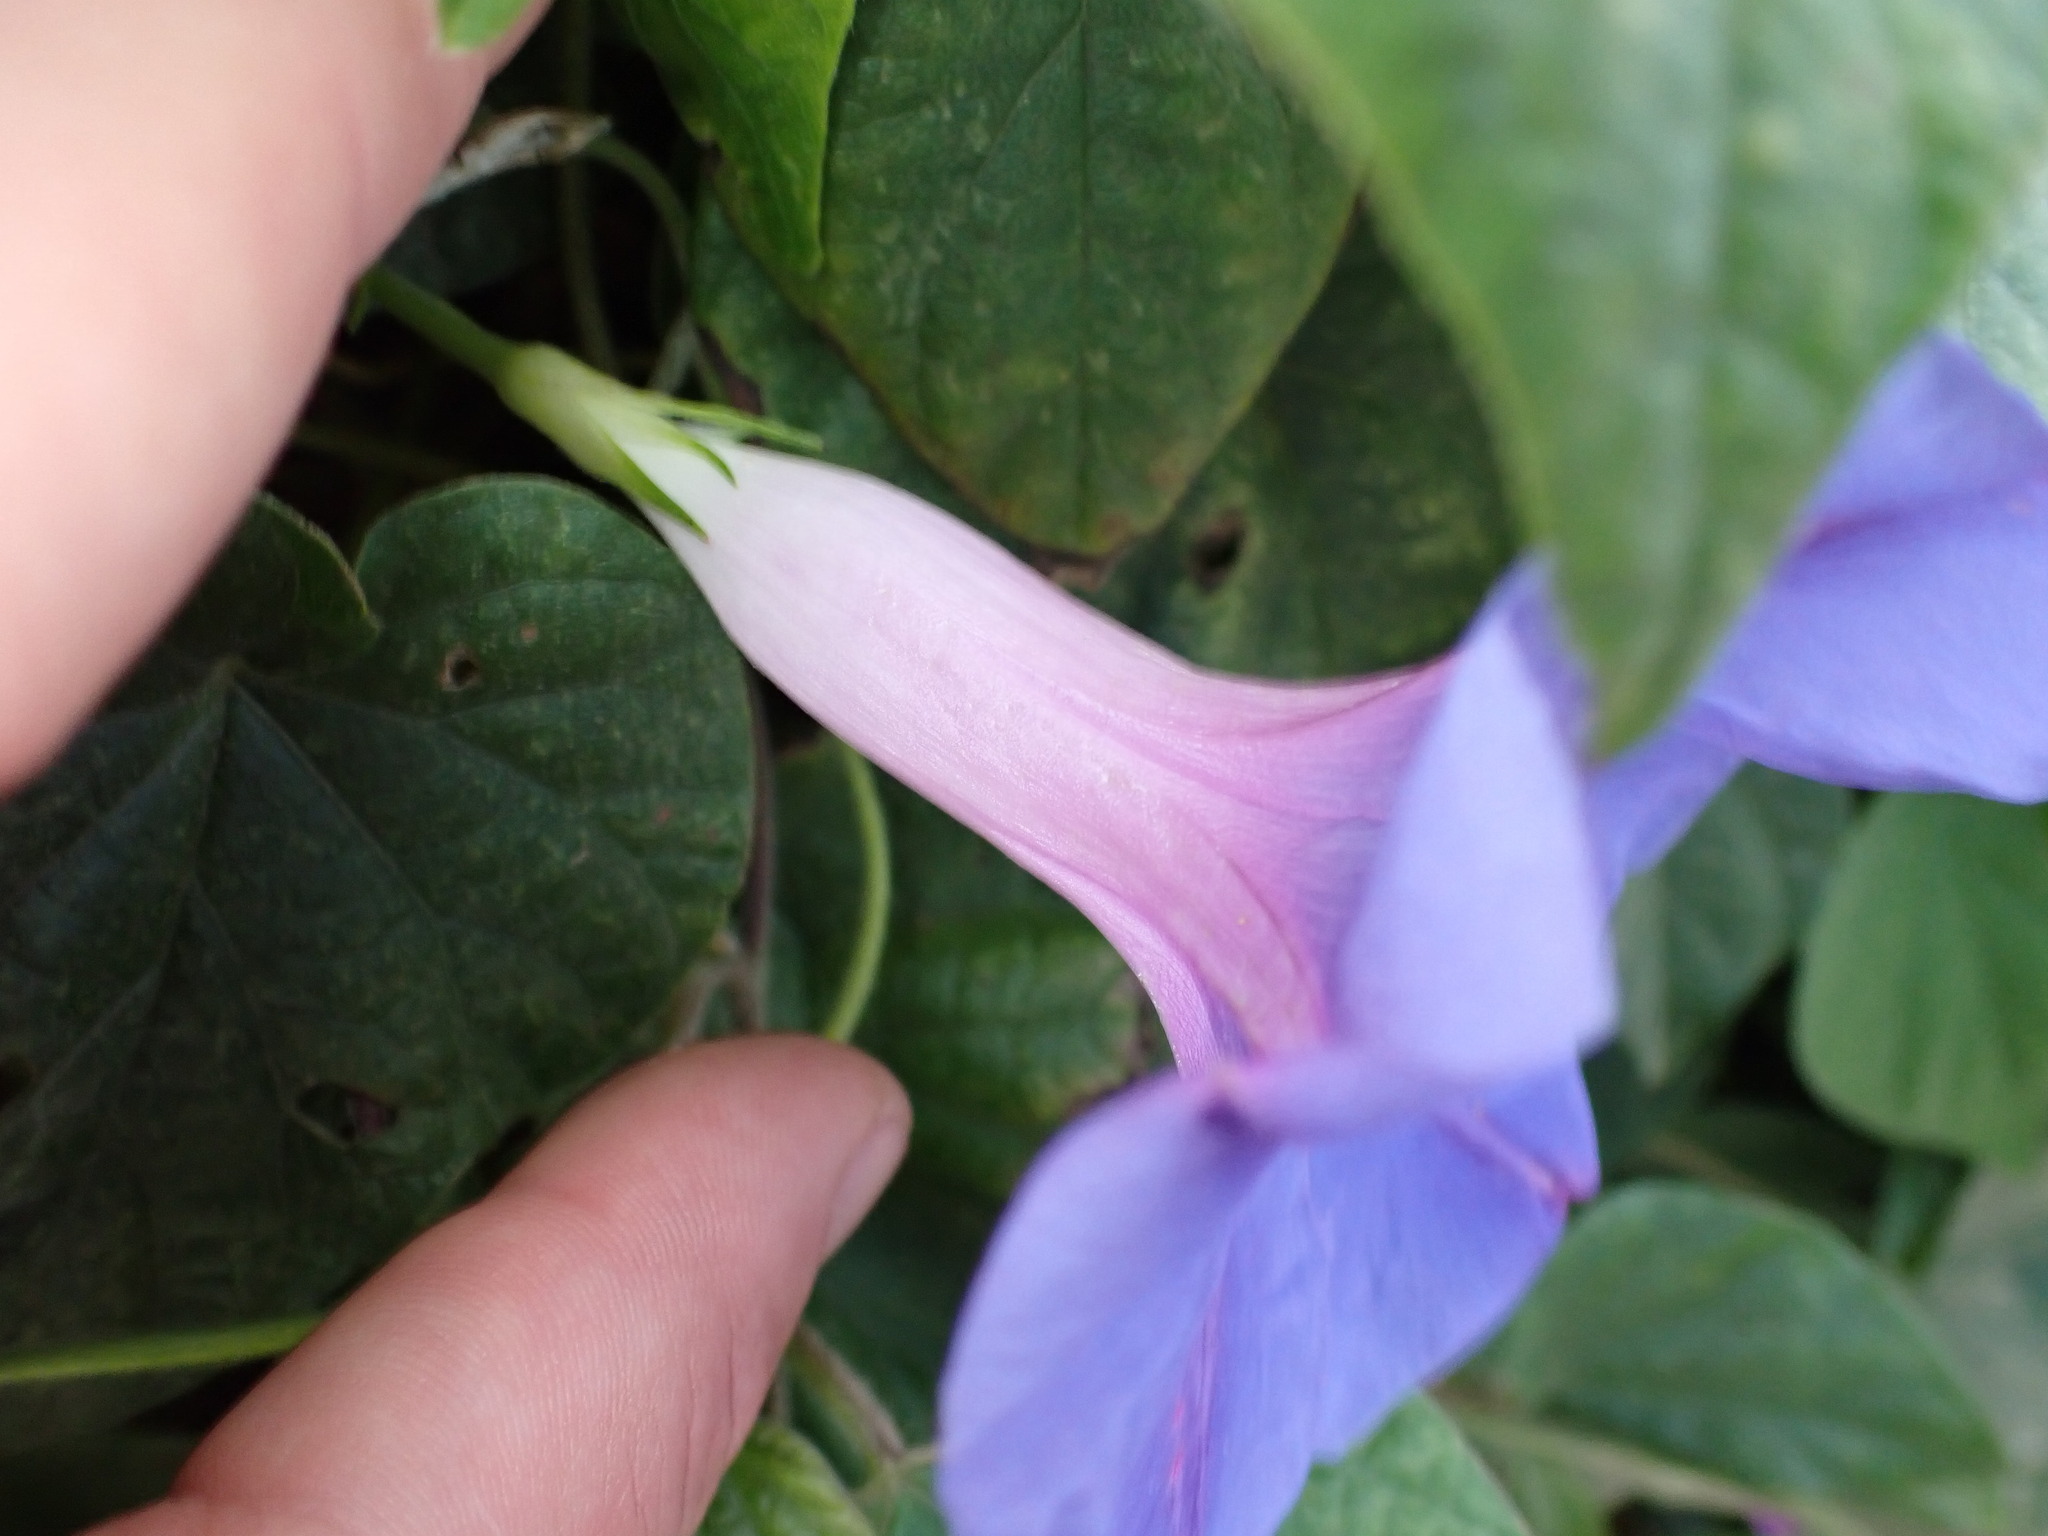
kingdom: Plantae
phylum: Tracheophyta
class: Magnoliopsida
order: Solanales
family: Convolvulaceae
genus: Ipomoea
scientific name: Ipomoea indica
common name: Blue dawnflower
